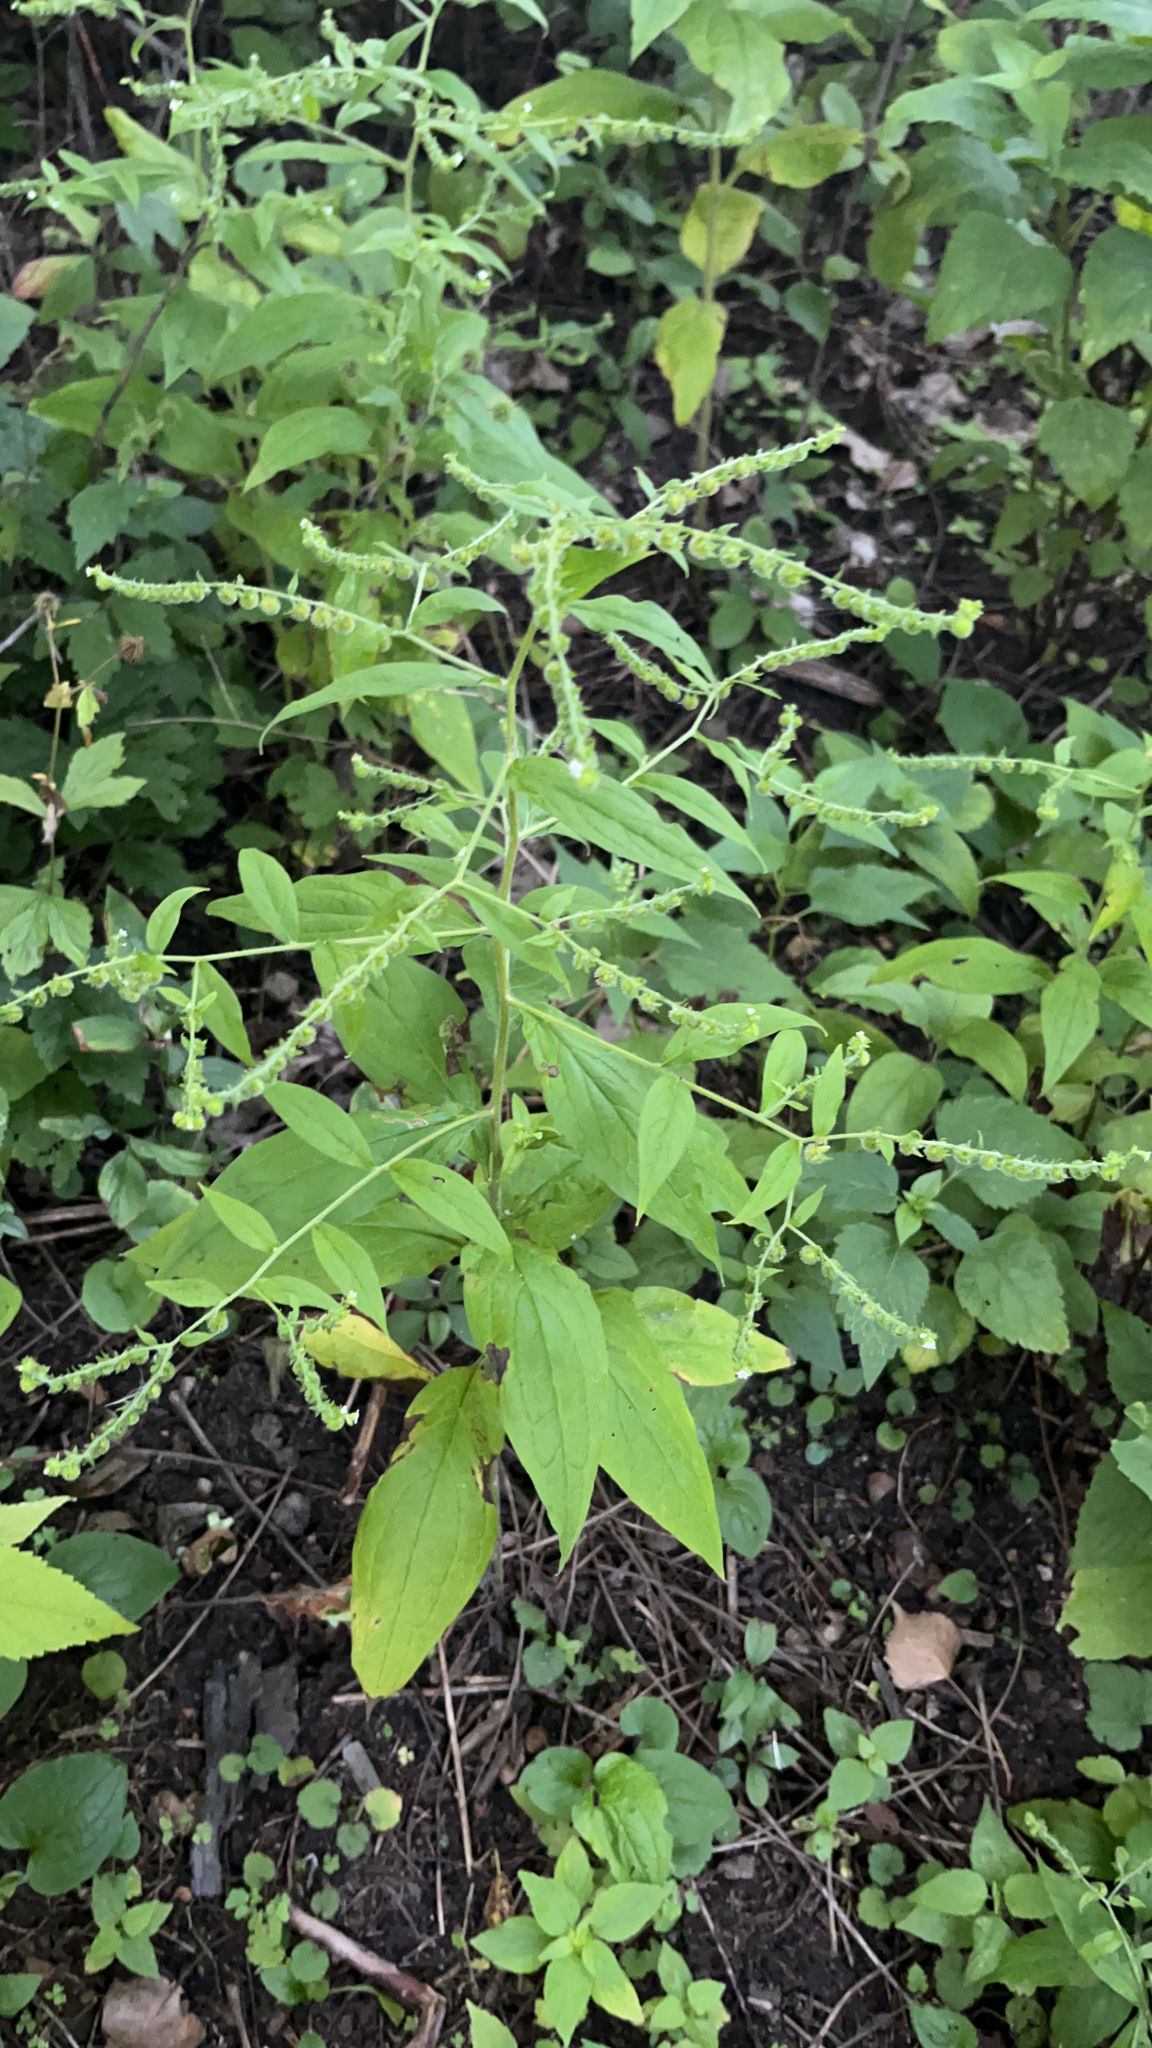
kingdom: Plantae
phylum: Tracheophyta
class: Magnoliopsida
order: Boraginales
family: Boraginaceae
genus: Hackelia
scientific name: Hackelia virginiana
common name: Beggar's-lice
